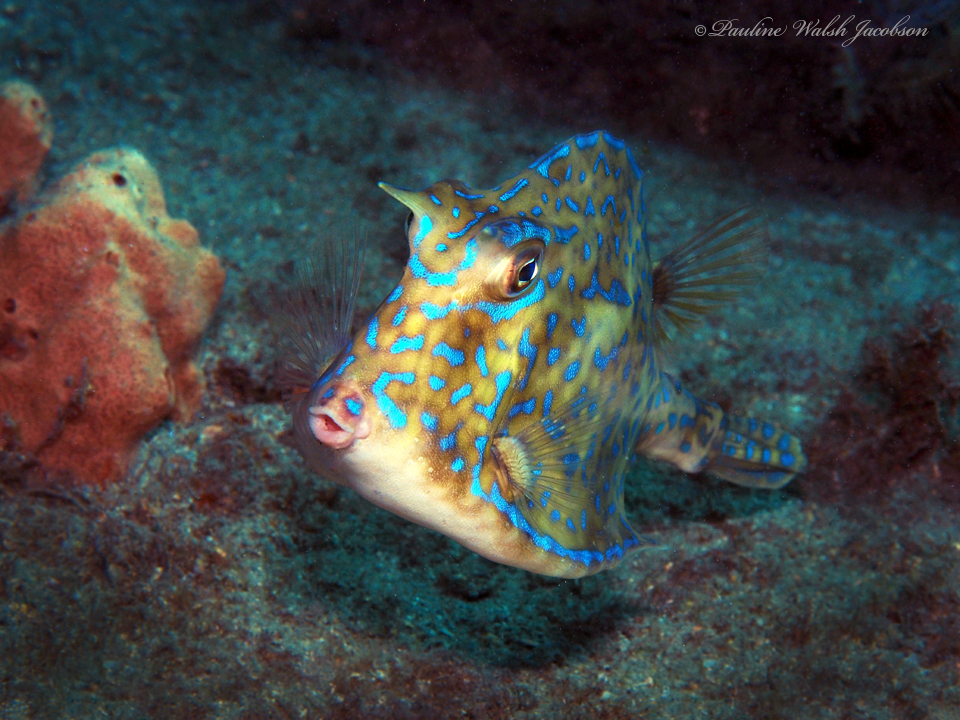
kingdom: Animalia
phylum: Chordata
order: Tetraodontiformes
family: Ostraciidae
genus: Acanthostracion
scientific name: Acanthostracion quadricornis
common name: Scrawled cowfish
